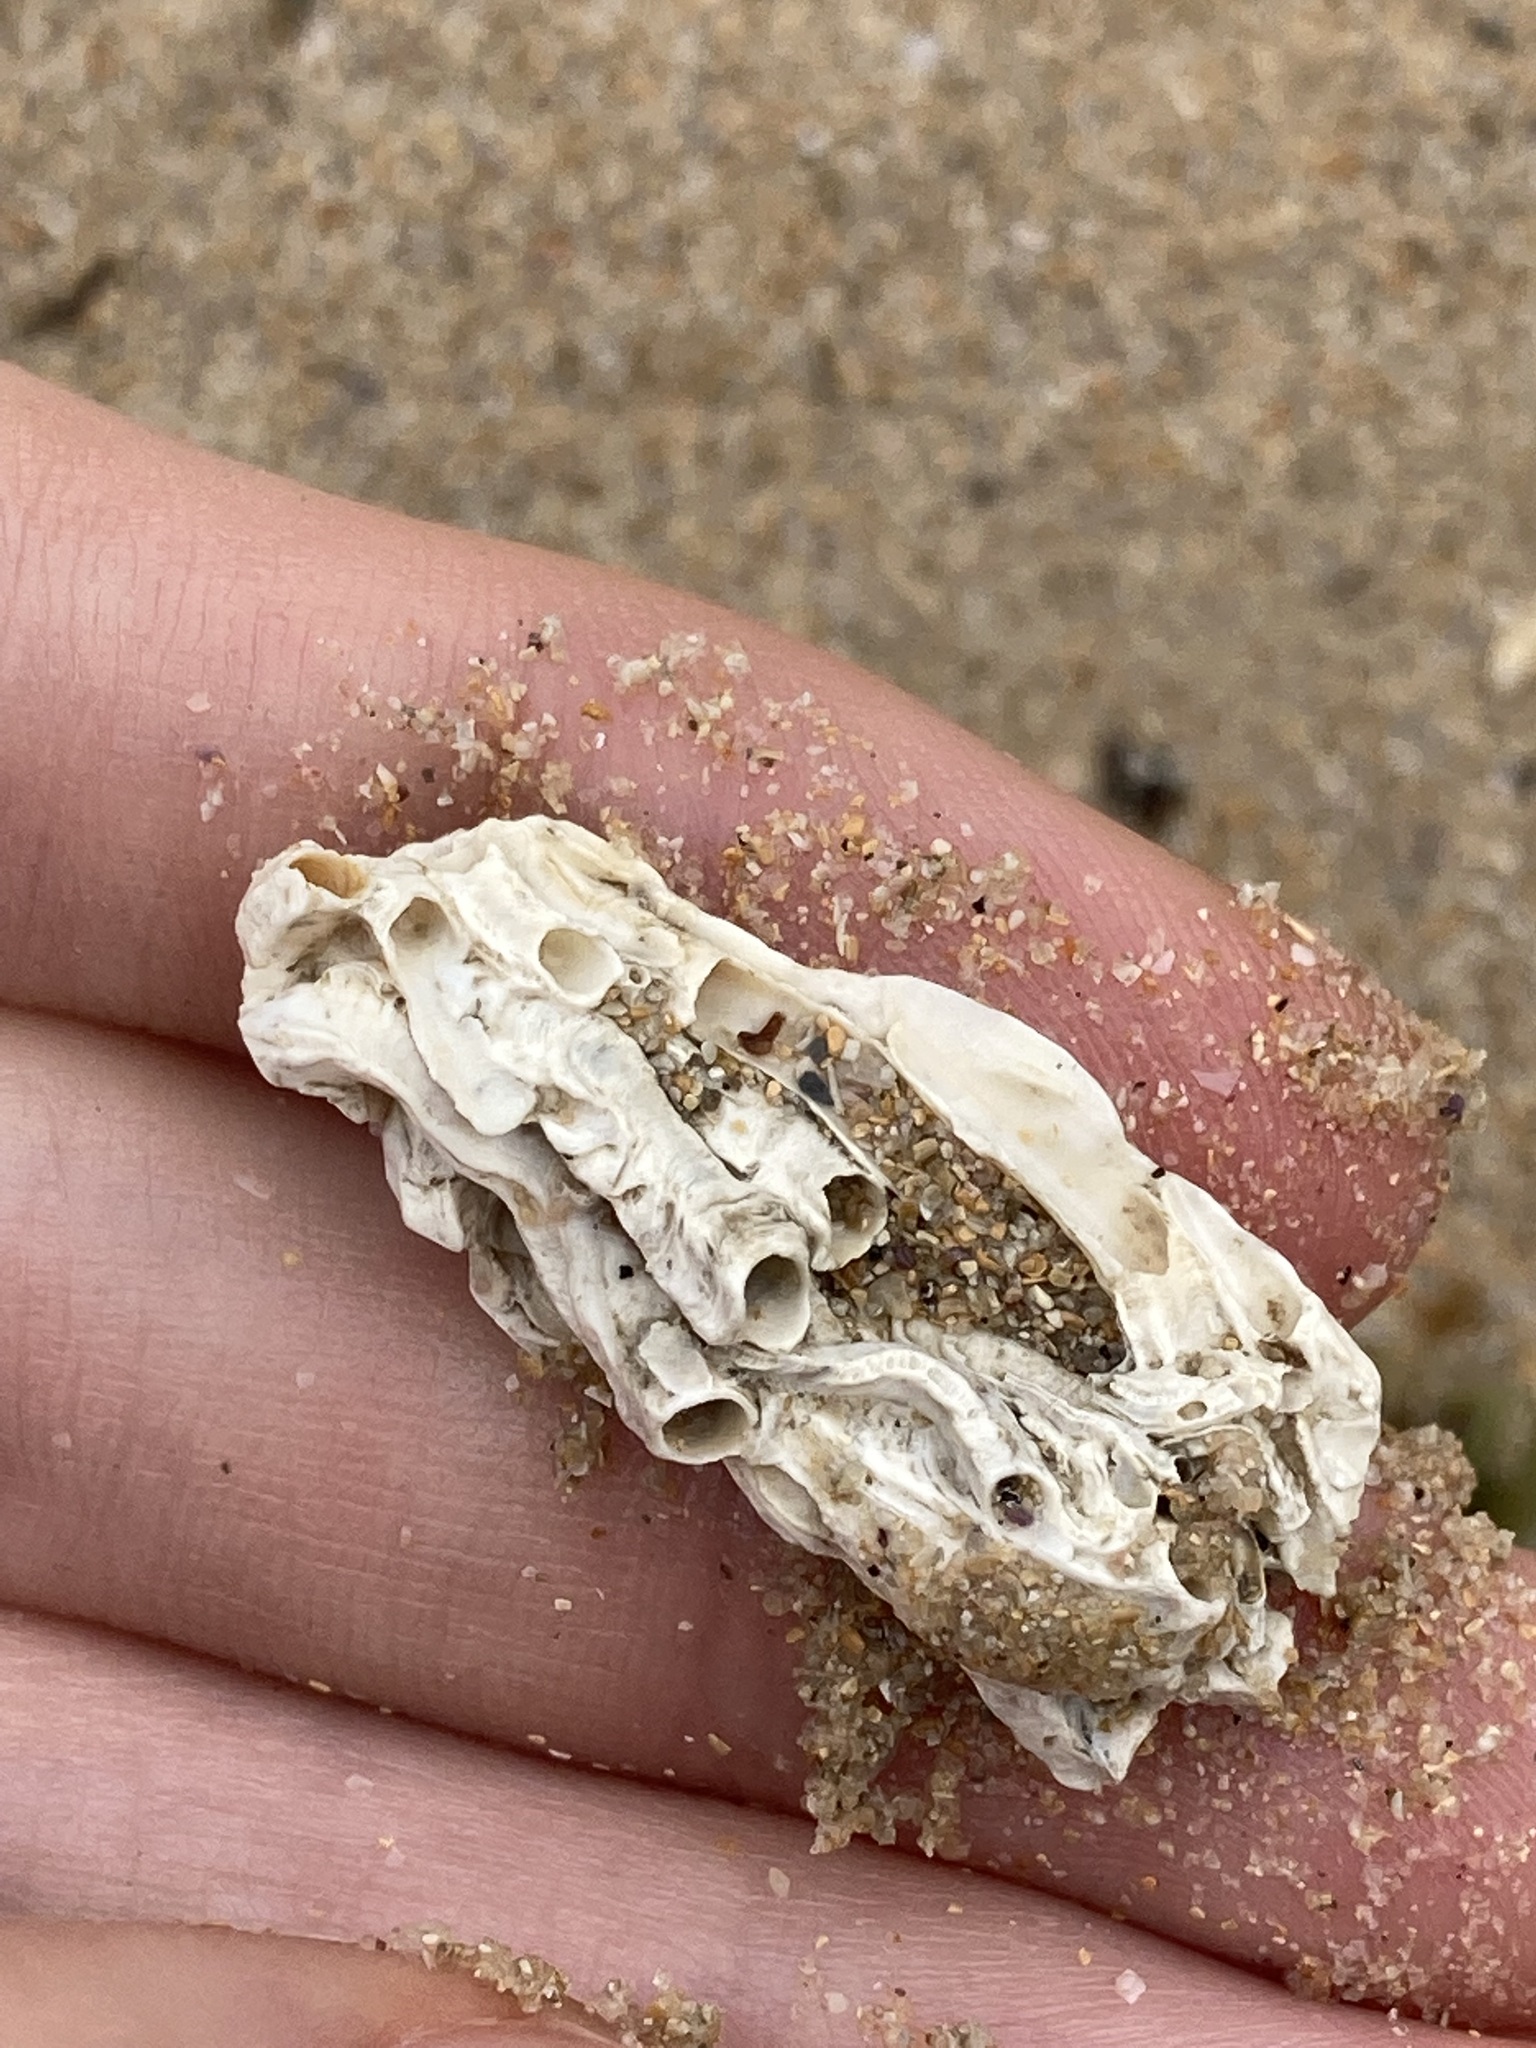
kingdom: Animalia
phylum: Annelida
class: Polychaeta
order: Sabellida
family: Serpulidae
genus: Galeolaria
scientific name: Galeolaria gemineoa
